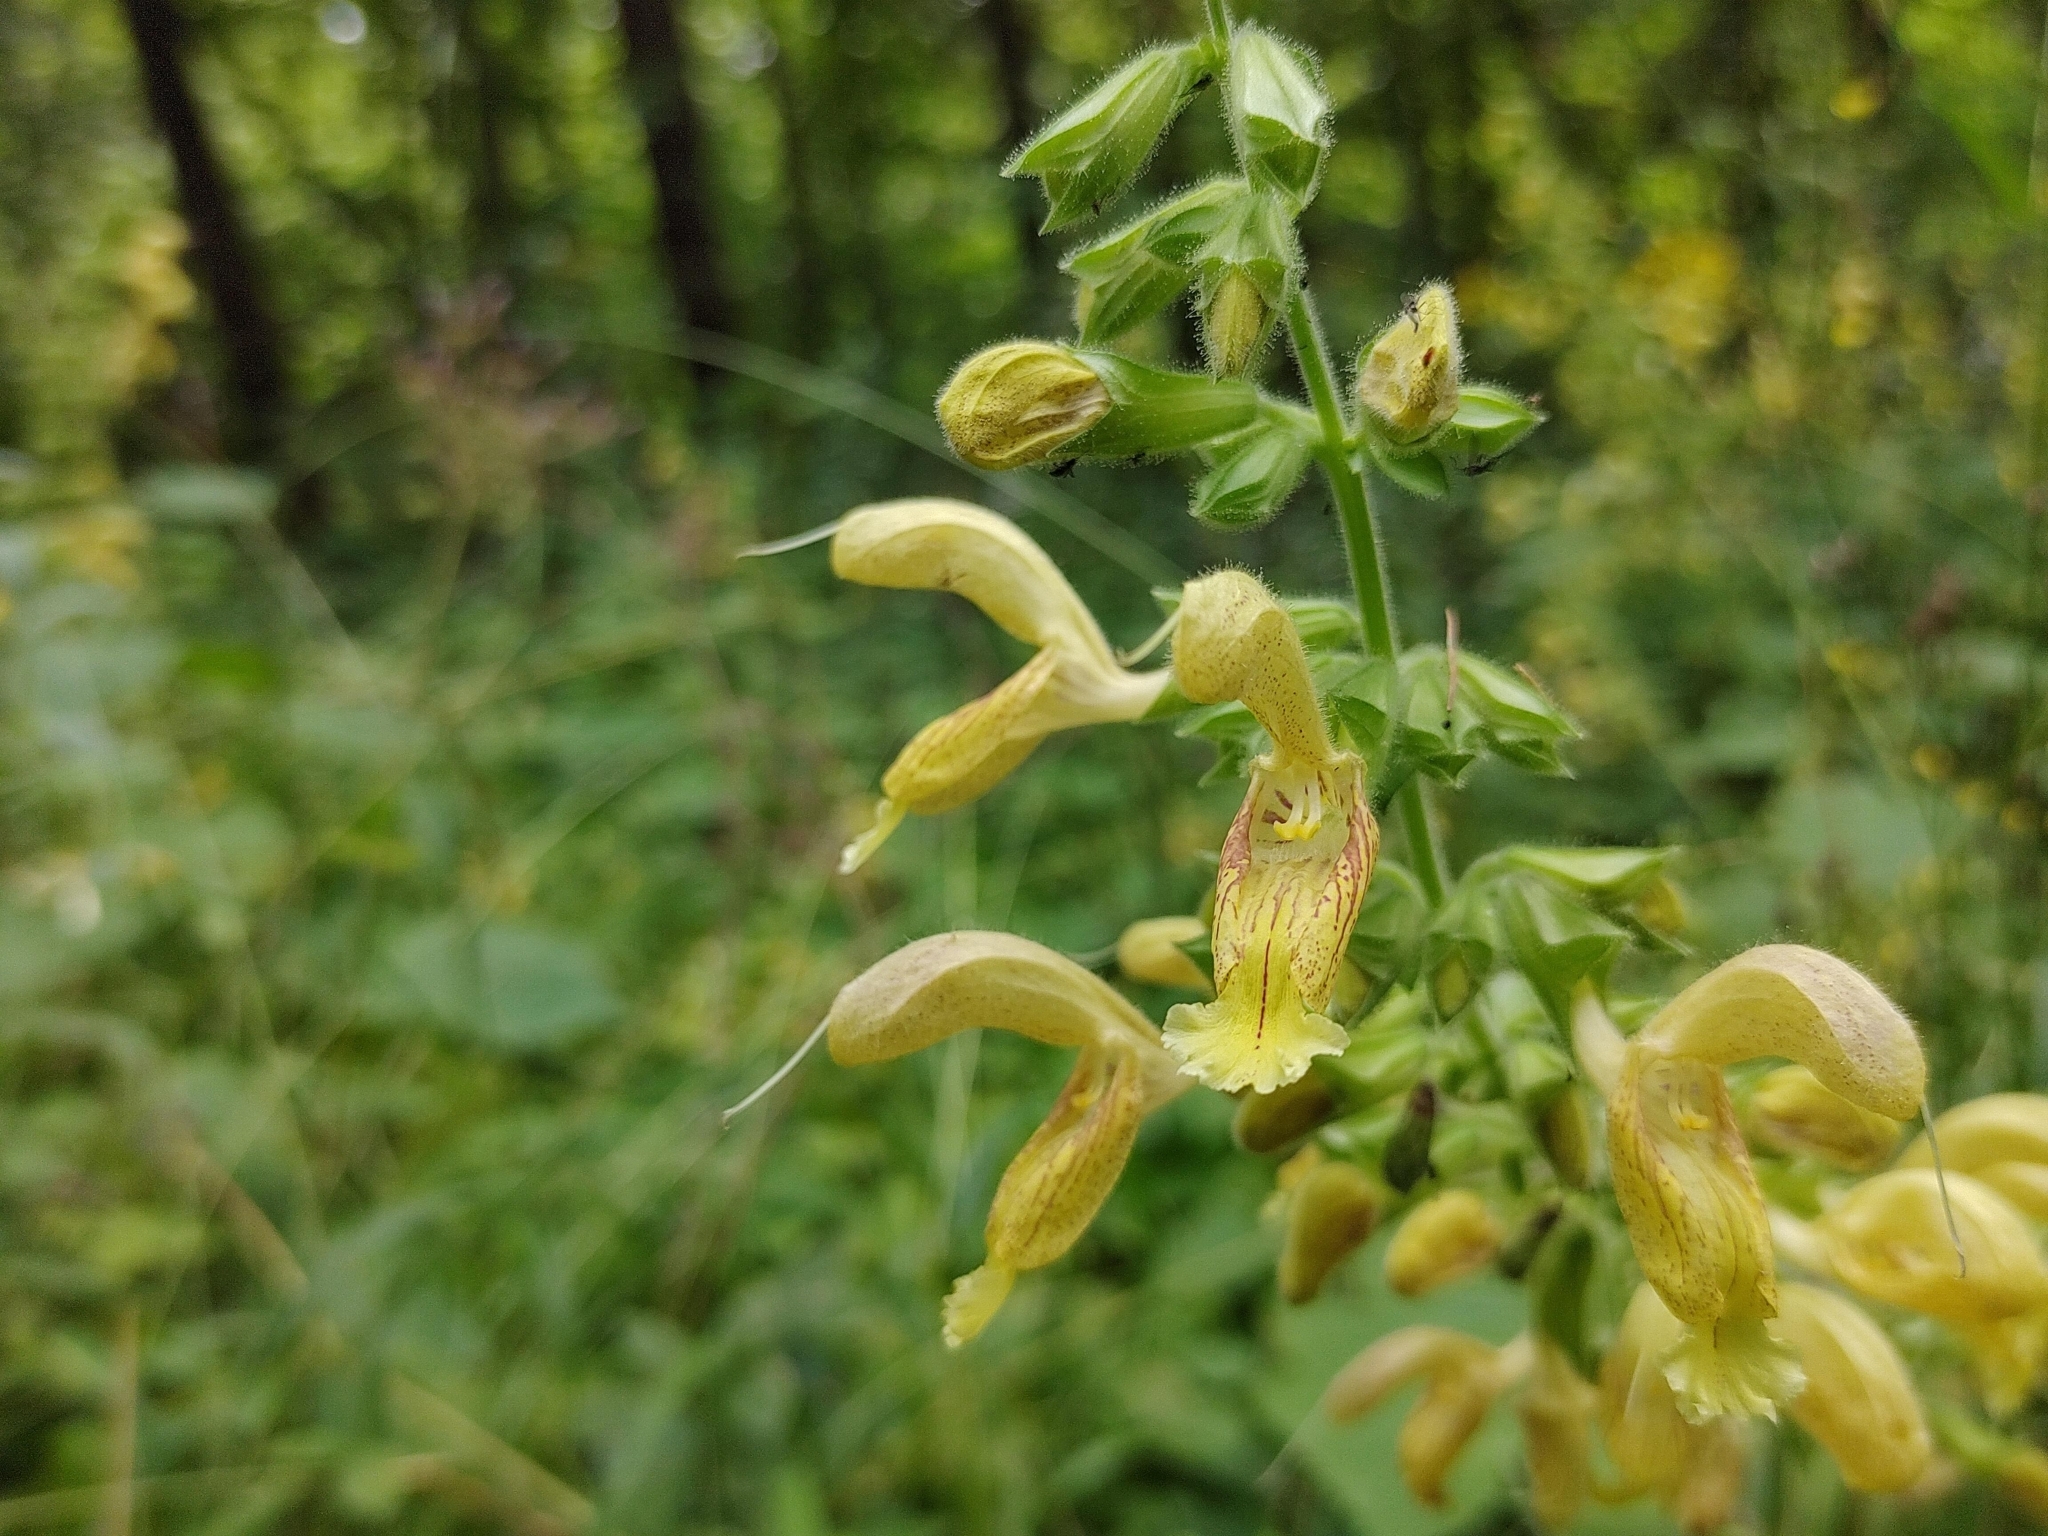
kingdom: Plantae
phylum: Tracheophyta
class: Magnoliopsida
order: Lamiales
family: Lamiaceae
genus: Salvia
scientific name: Salvia glutinosa
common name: Sticky clary
